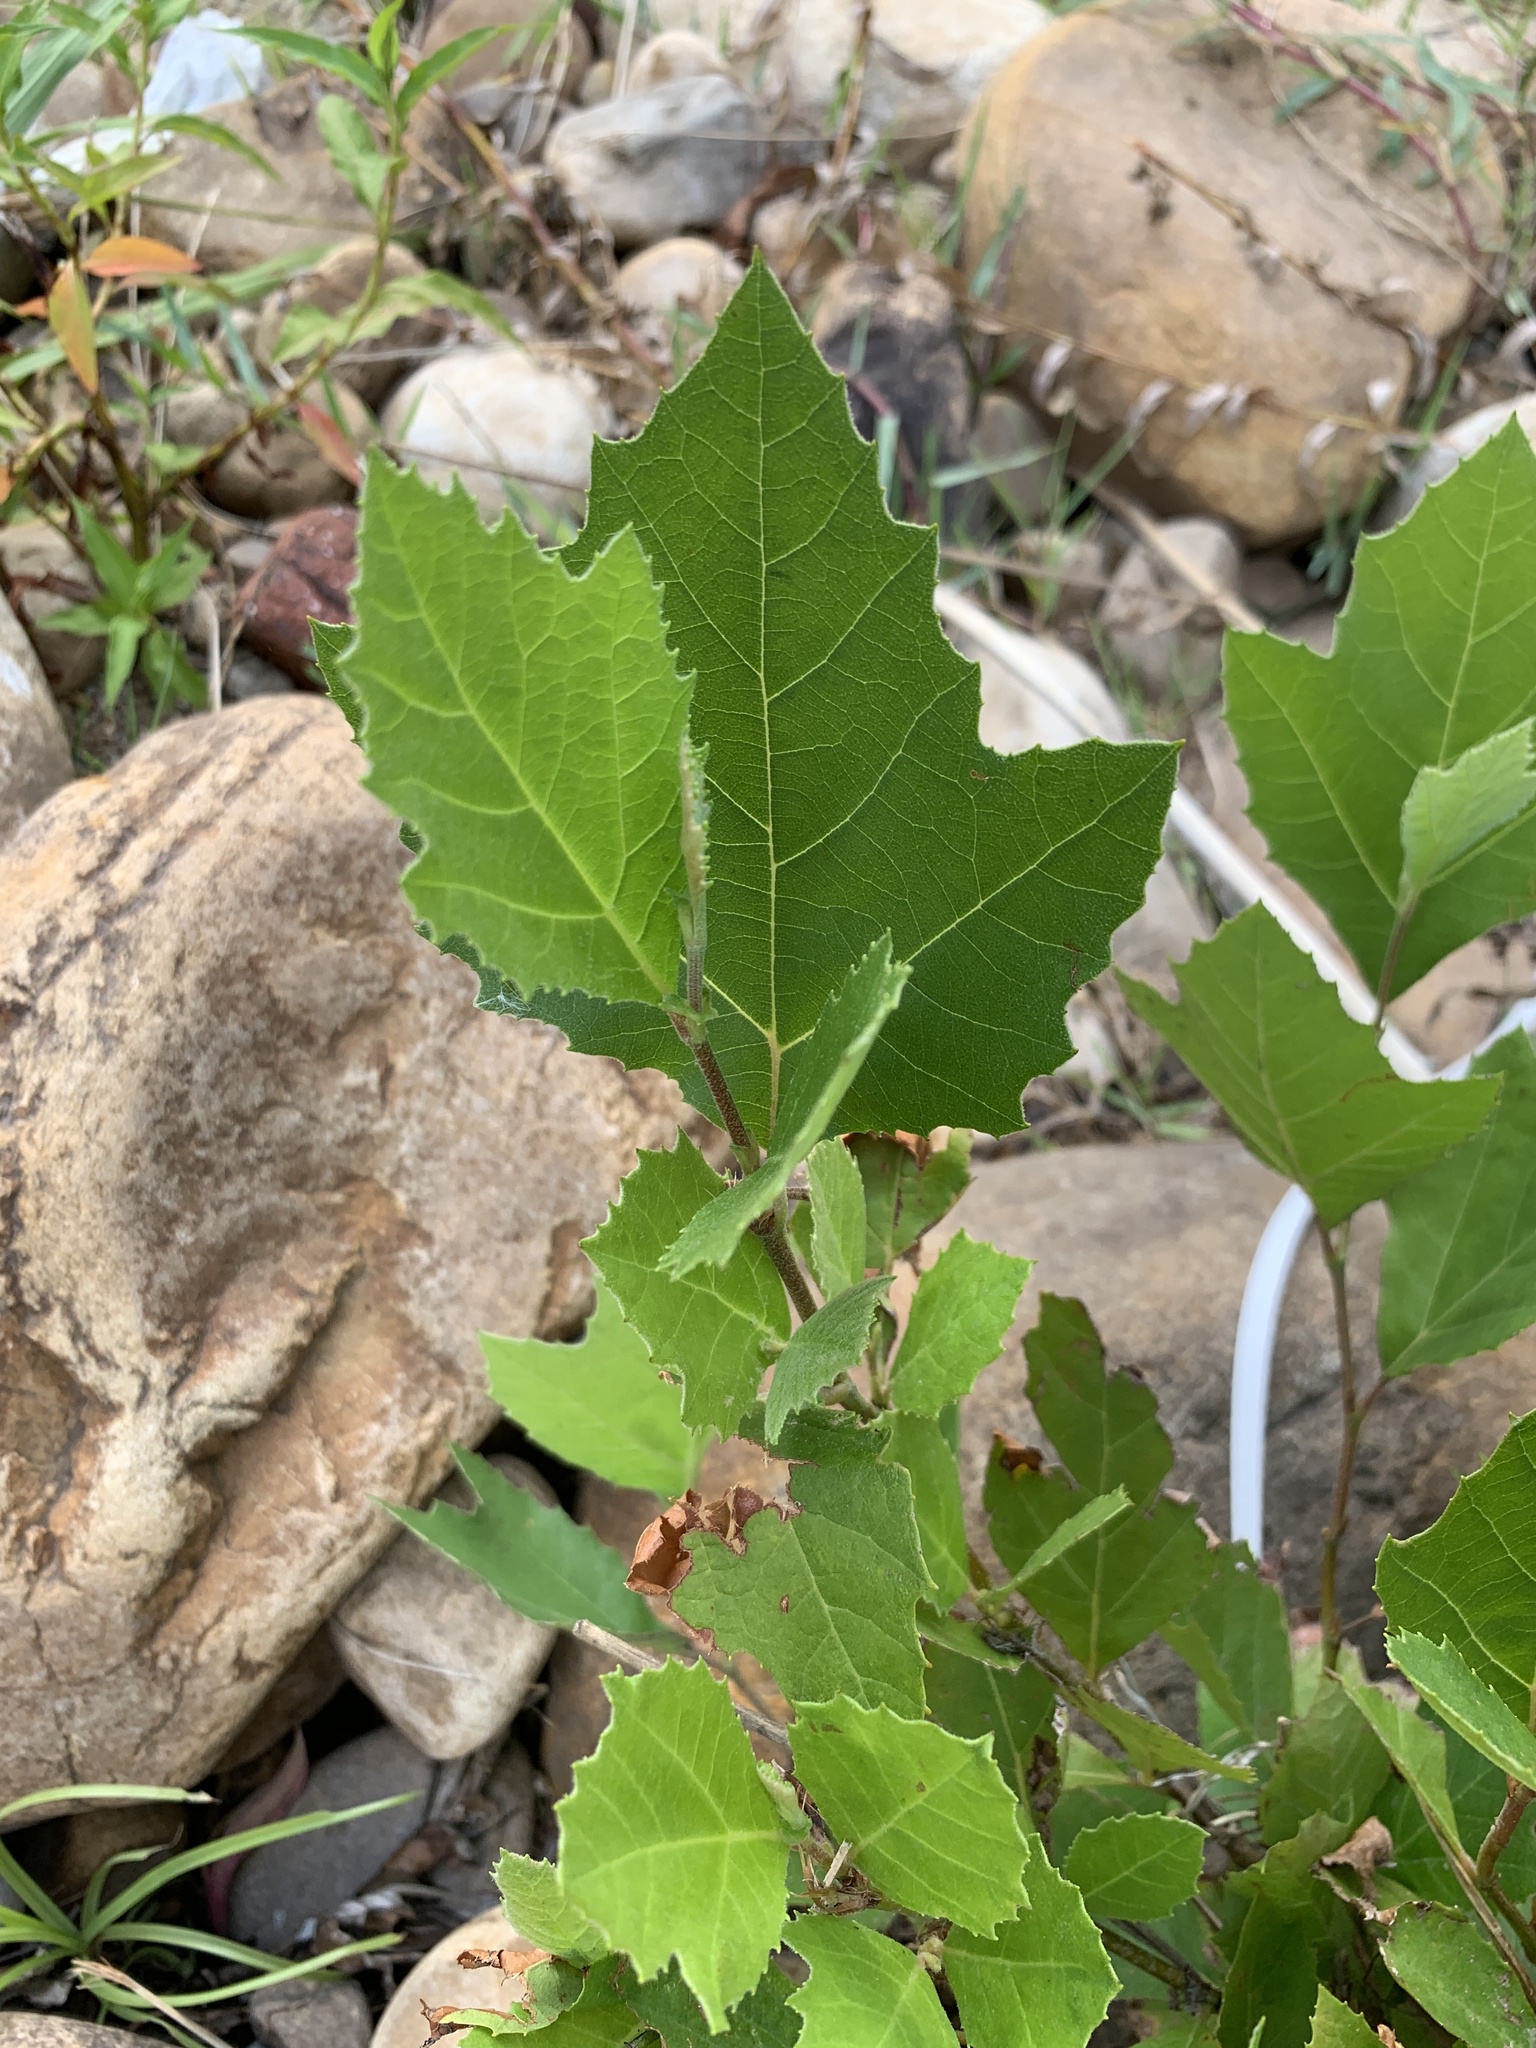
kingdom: Plantae
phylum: Tracheophyta
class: Magnoliopsida
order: Proteales
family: Platanaceae
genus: Platanus
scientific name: Platanus hispanica
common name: London plane
